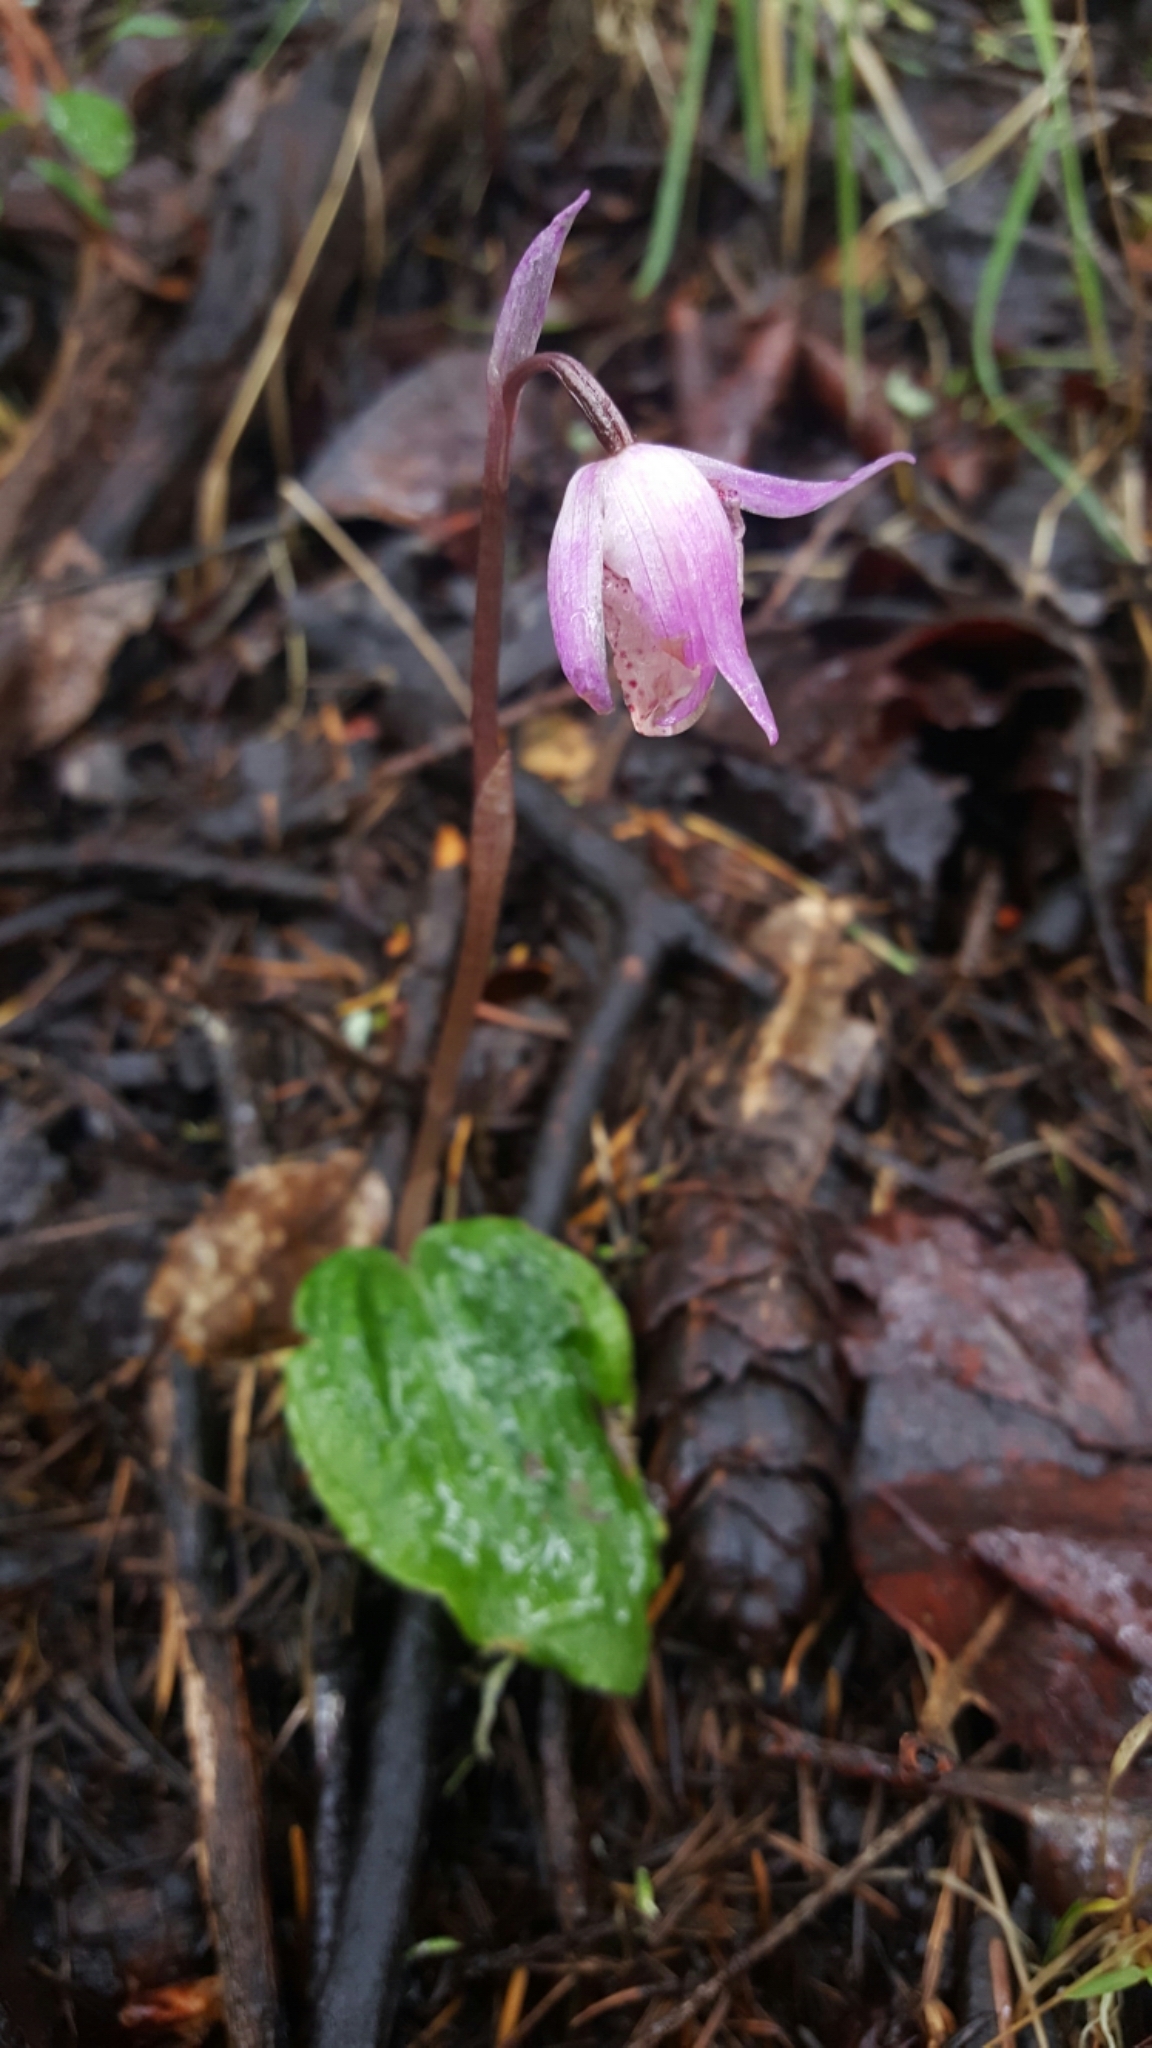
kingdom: Plantae
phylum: Tracheophyta
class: Liliopsida
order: Asparagales
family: Orchidaceae
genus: Calypso
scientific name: Calypso bulbosa
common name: Calypso
